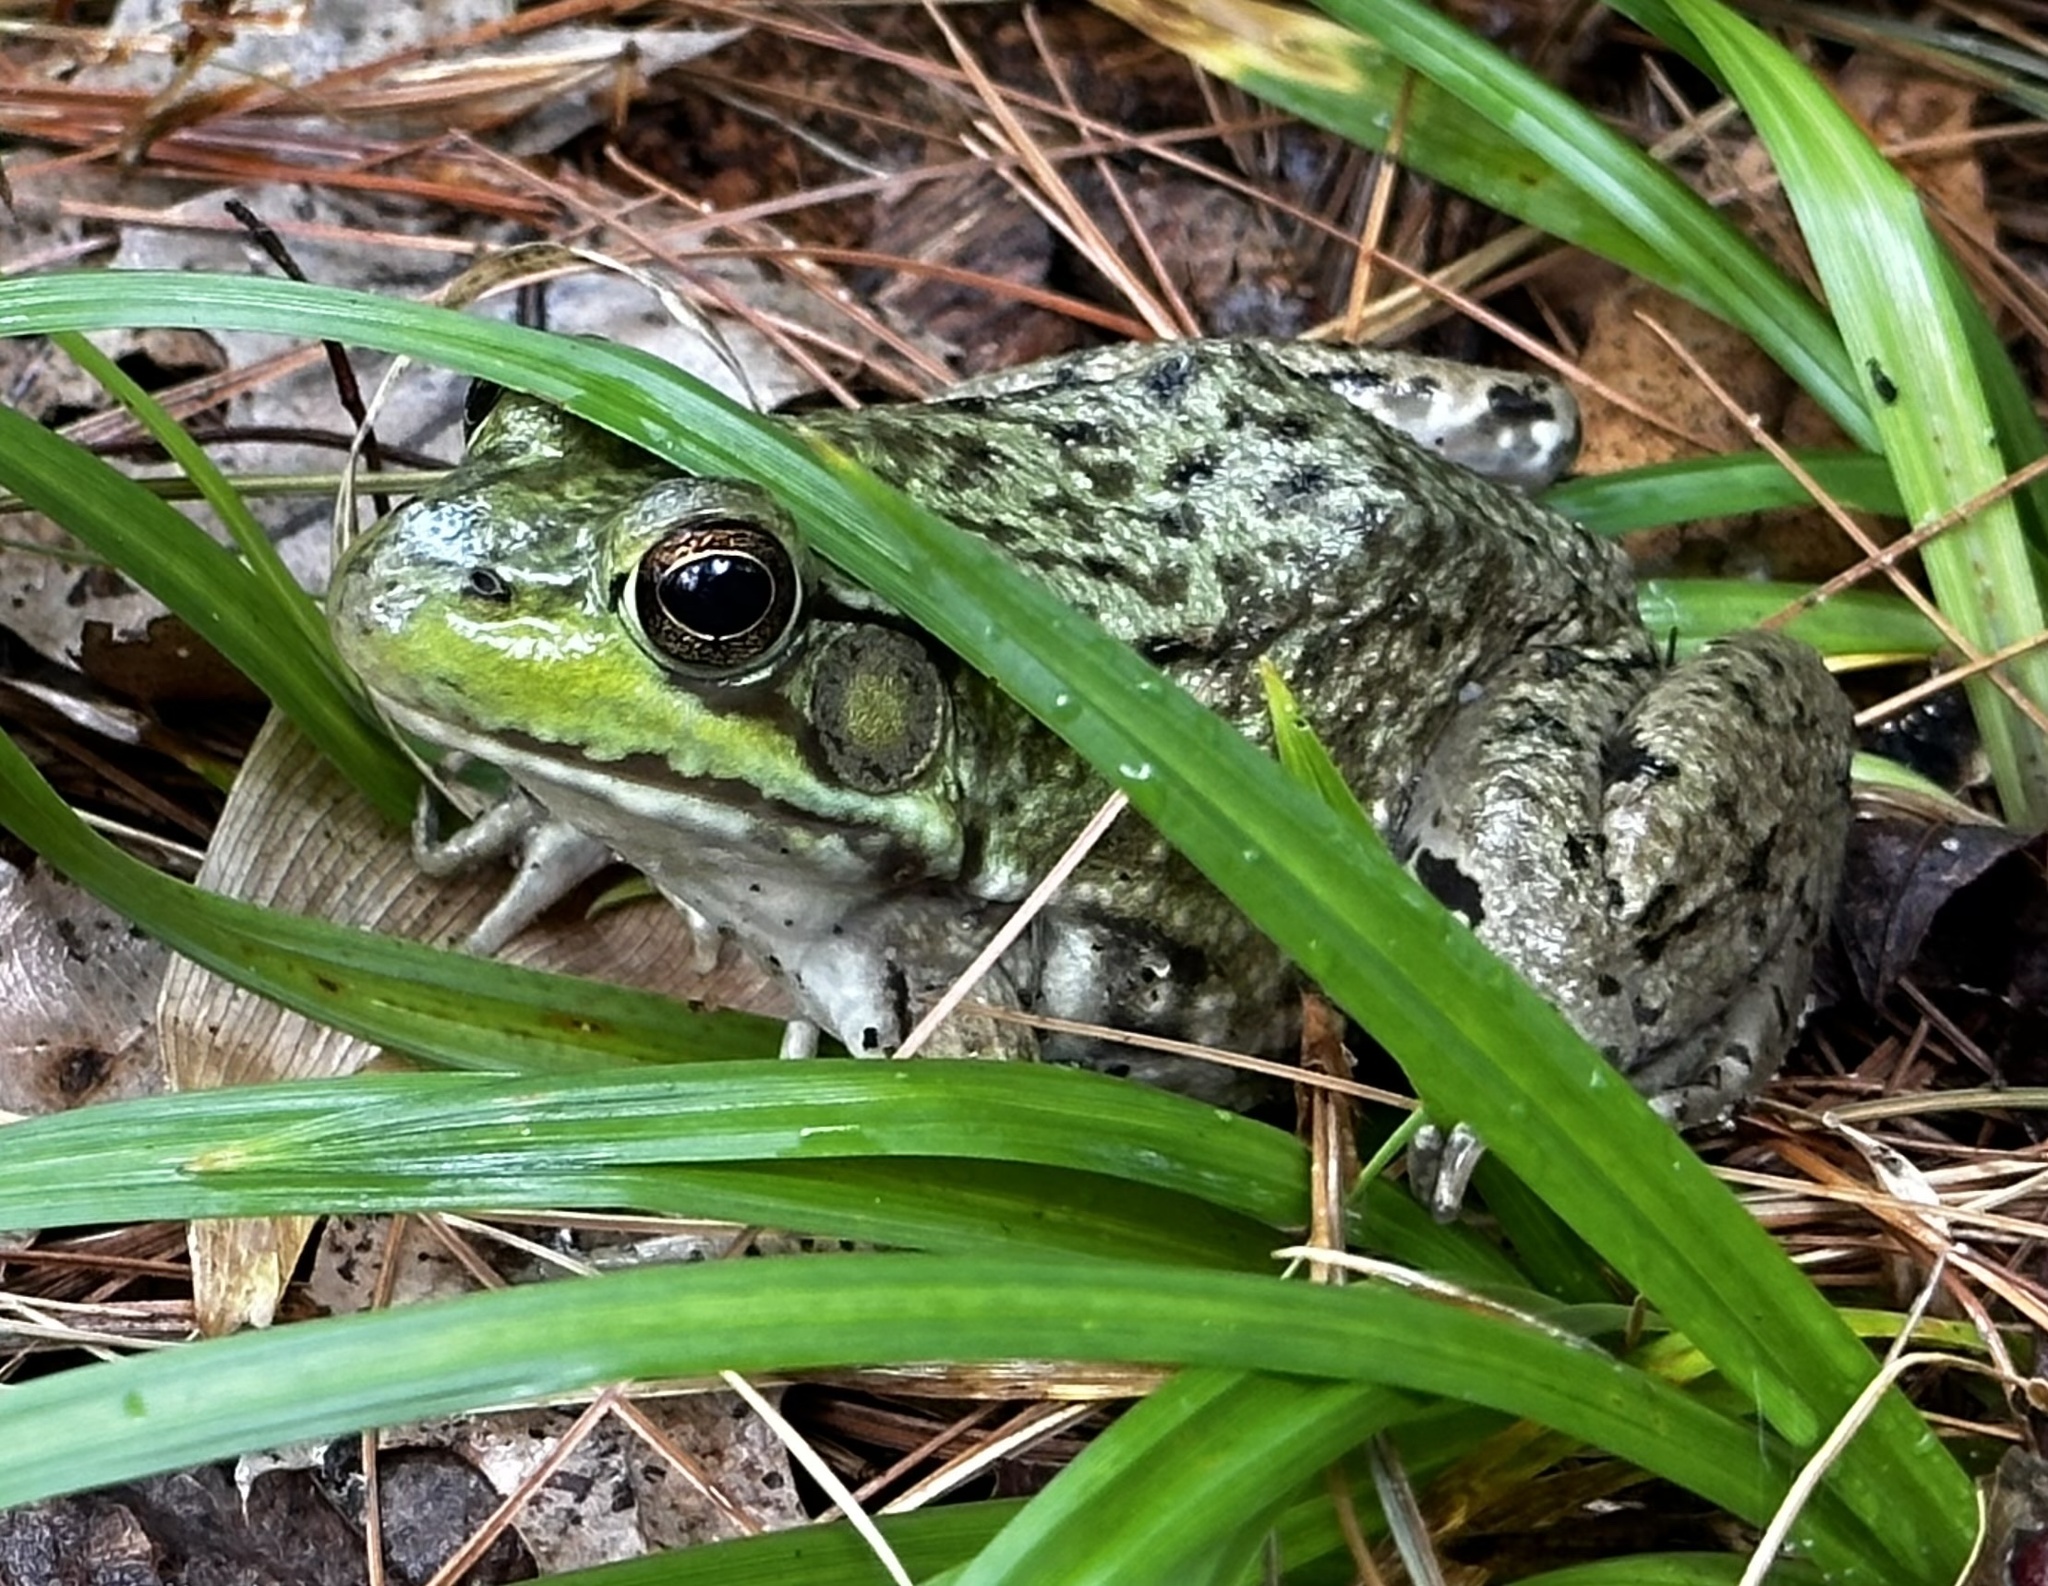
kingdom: Animalia
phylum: Chordata
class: Amphibia
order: Anura
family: Ranidae
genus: Lithobates
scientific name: Lithobates clamitans
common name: Green frog
